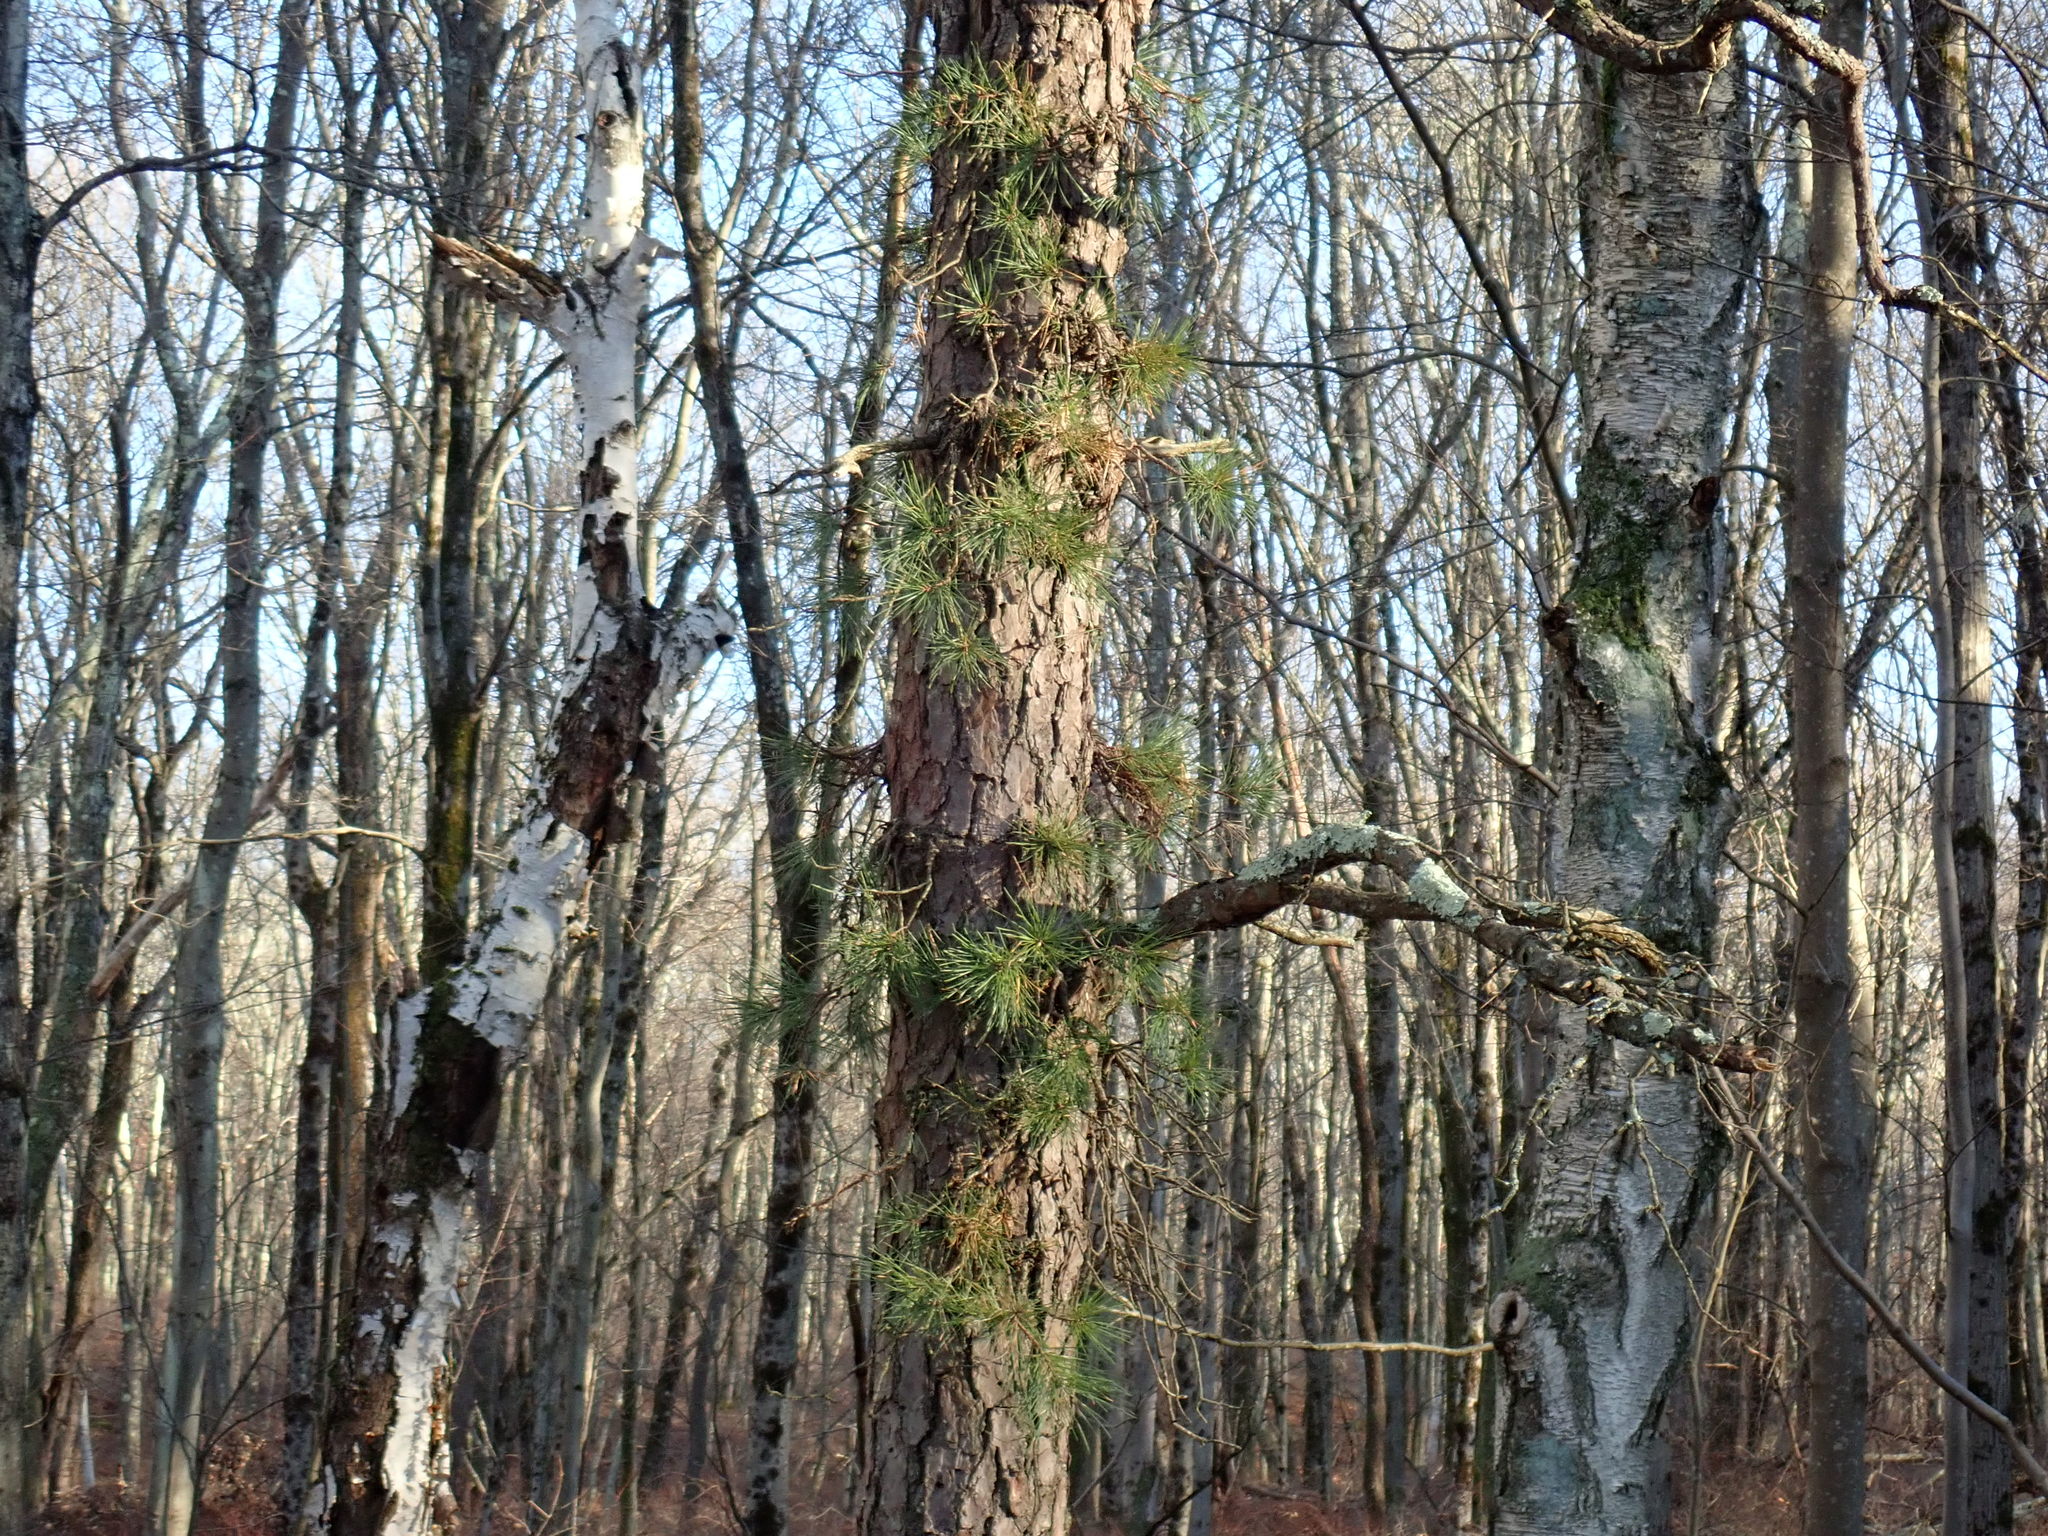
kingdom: Plantae
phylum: Tracheophyta
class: Pinopsida
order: Pinales
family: Pinaceae
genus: Pinus
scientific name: Pinus rigida
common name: Pitch pine
